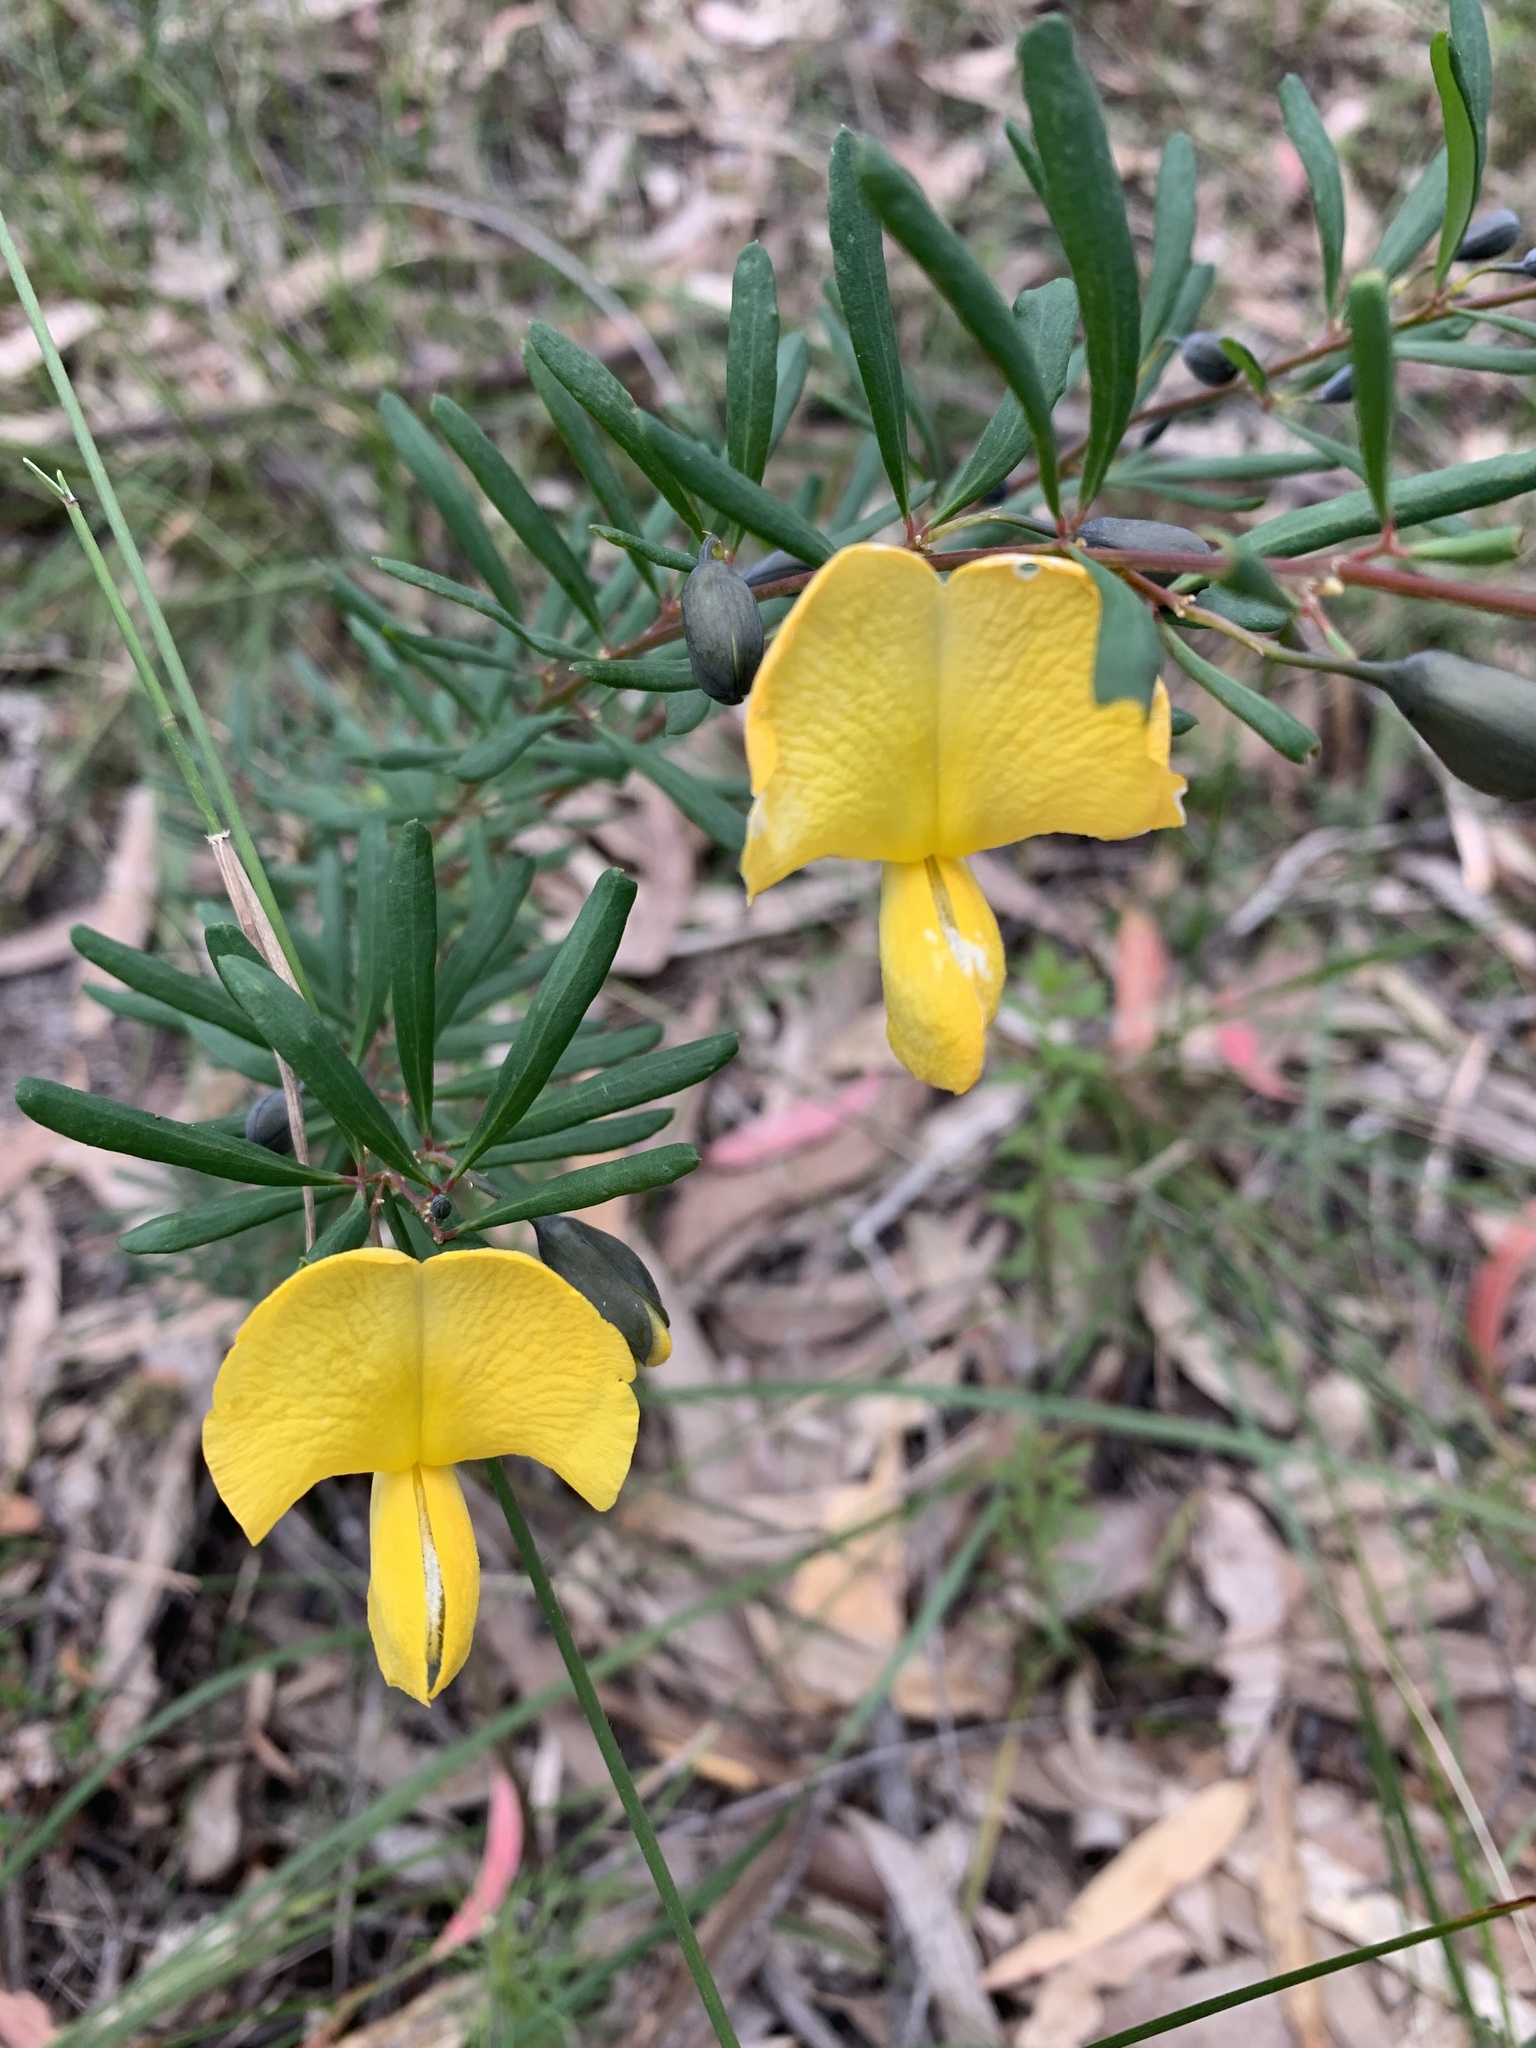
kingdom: Plantae
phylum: Tracheophyta
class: Magnoliopsida
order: Fabales
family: Fabaceae
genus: Gompholobium
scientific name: Gompholobium latifolium
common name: Broadleaf wedge-pea
